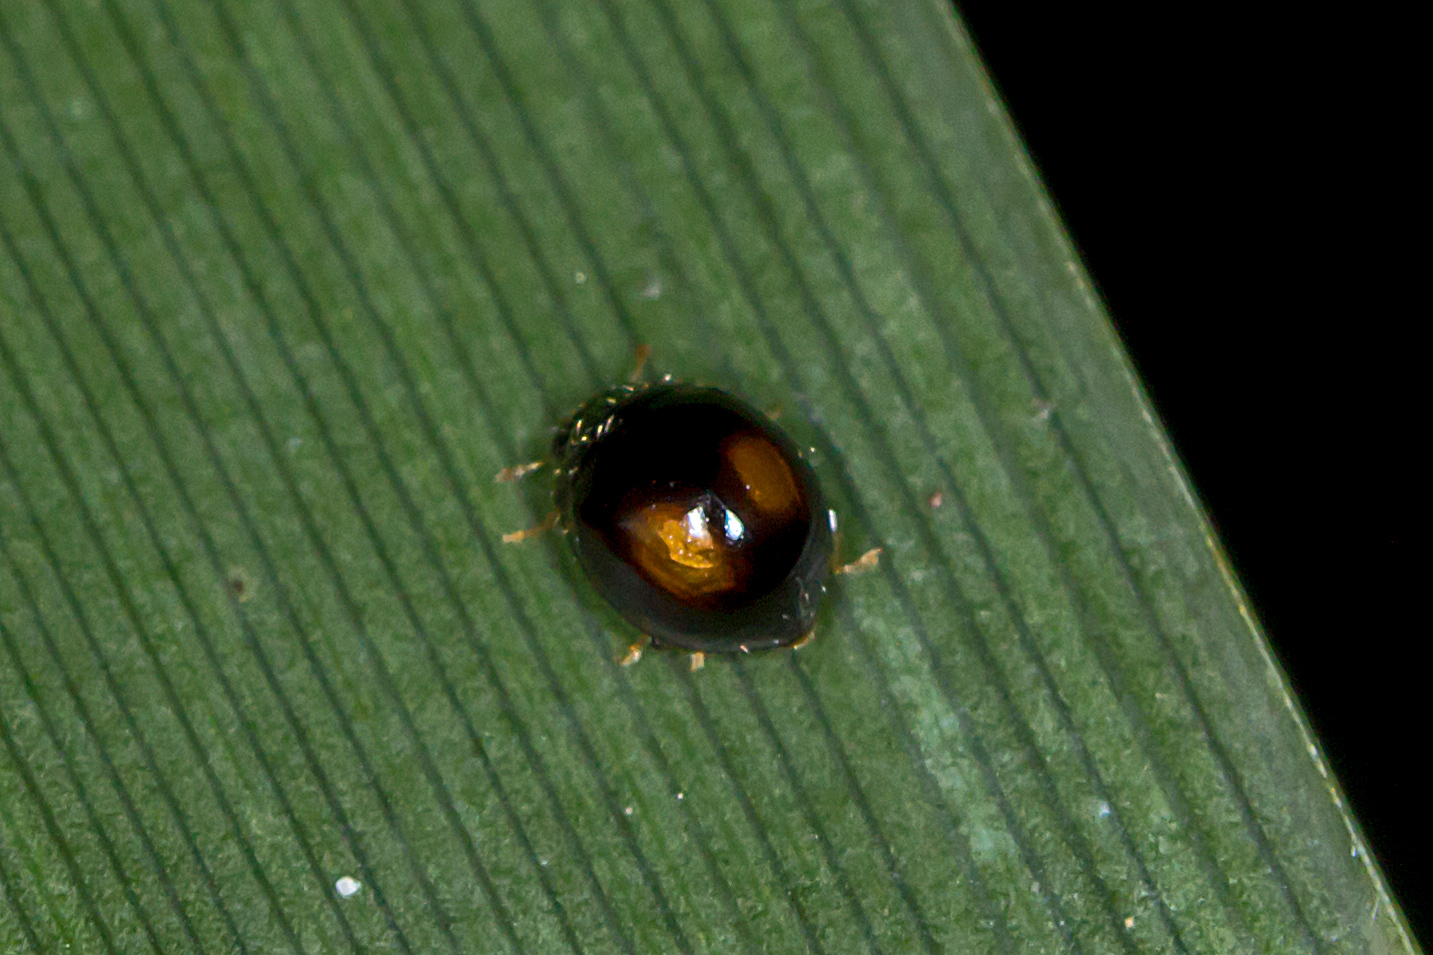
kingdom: Animalia
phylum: Arthropoda
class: Insecta
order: Coleoptera
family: Coccinellidae
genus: Serangium
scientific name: Serangium maculigerum
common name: Lady beetle
